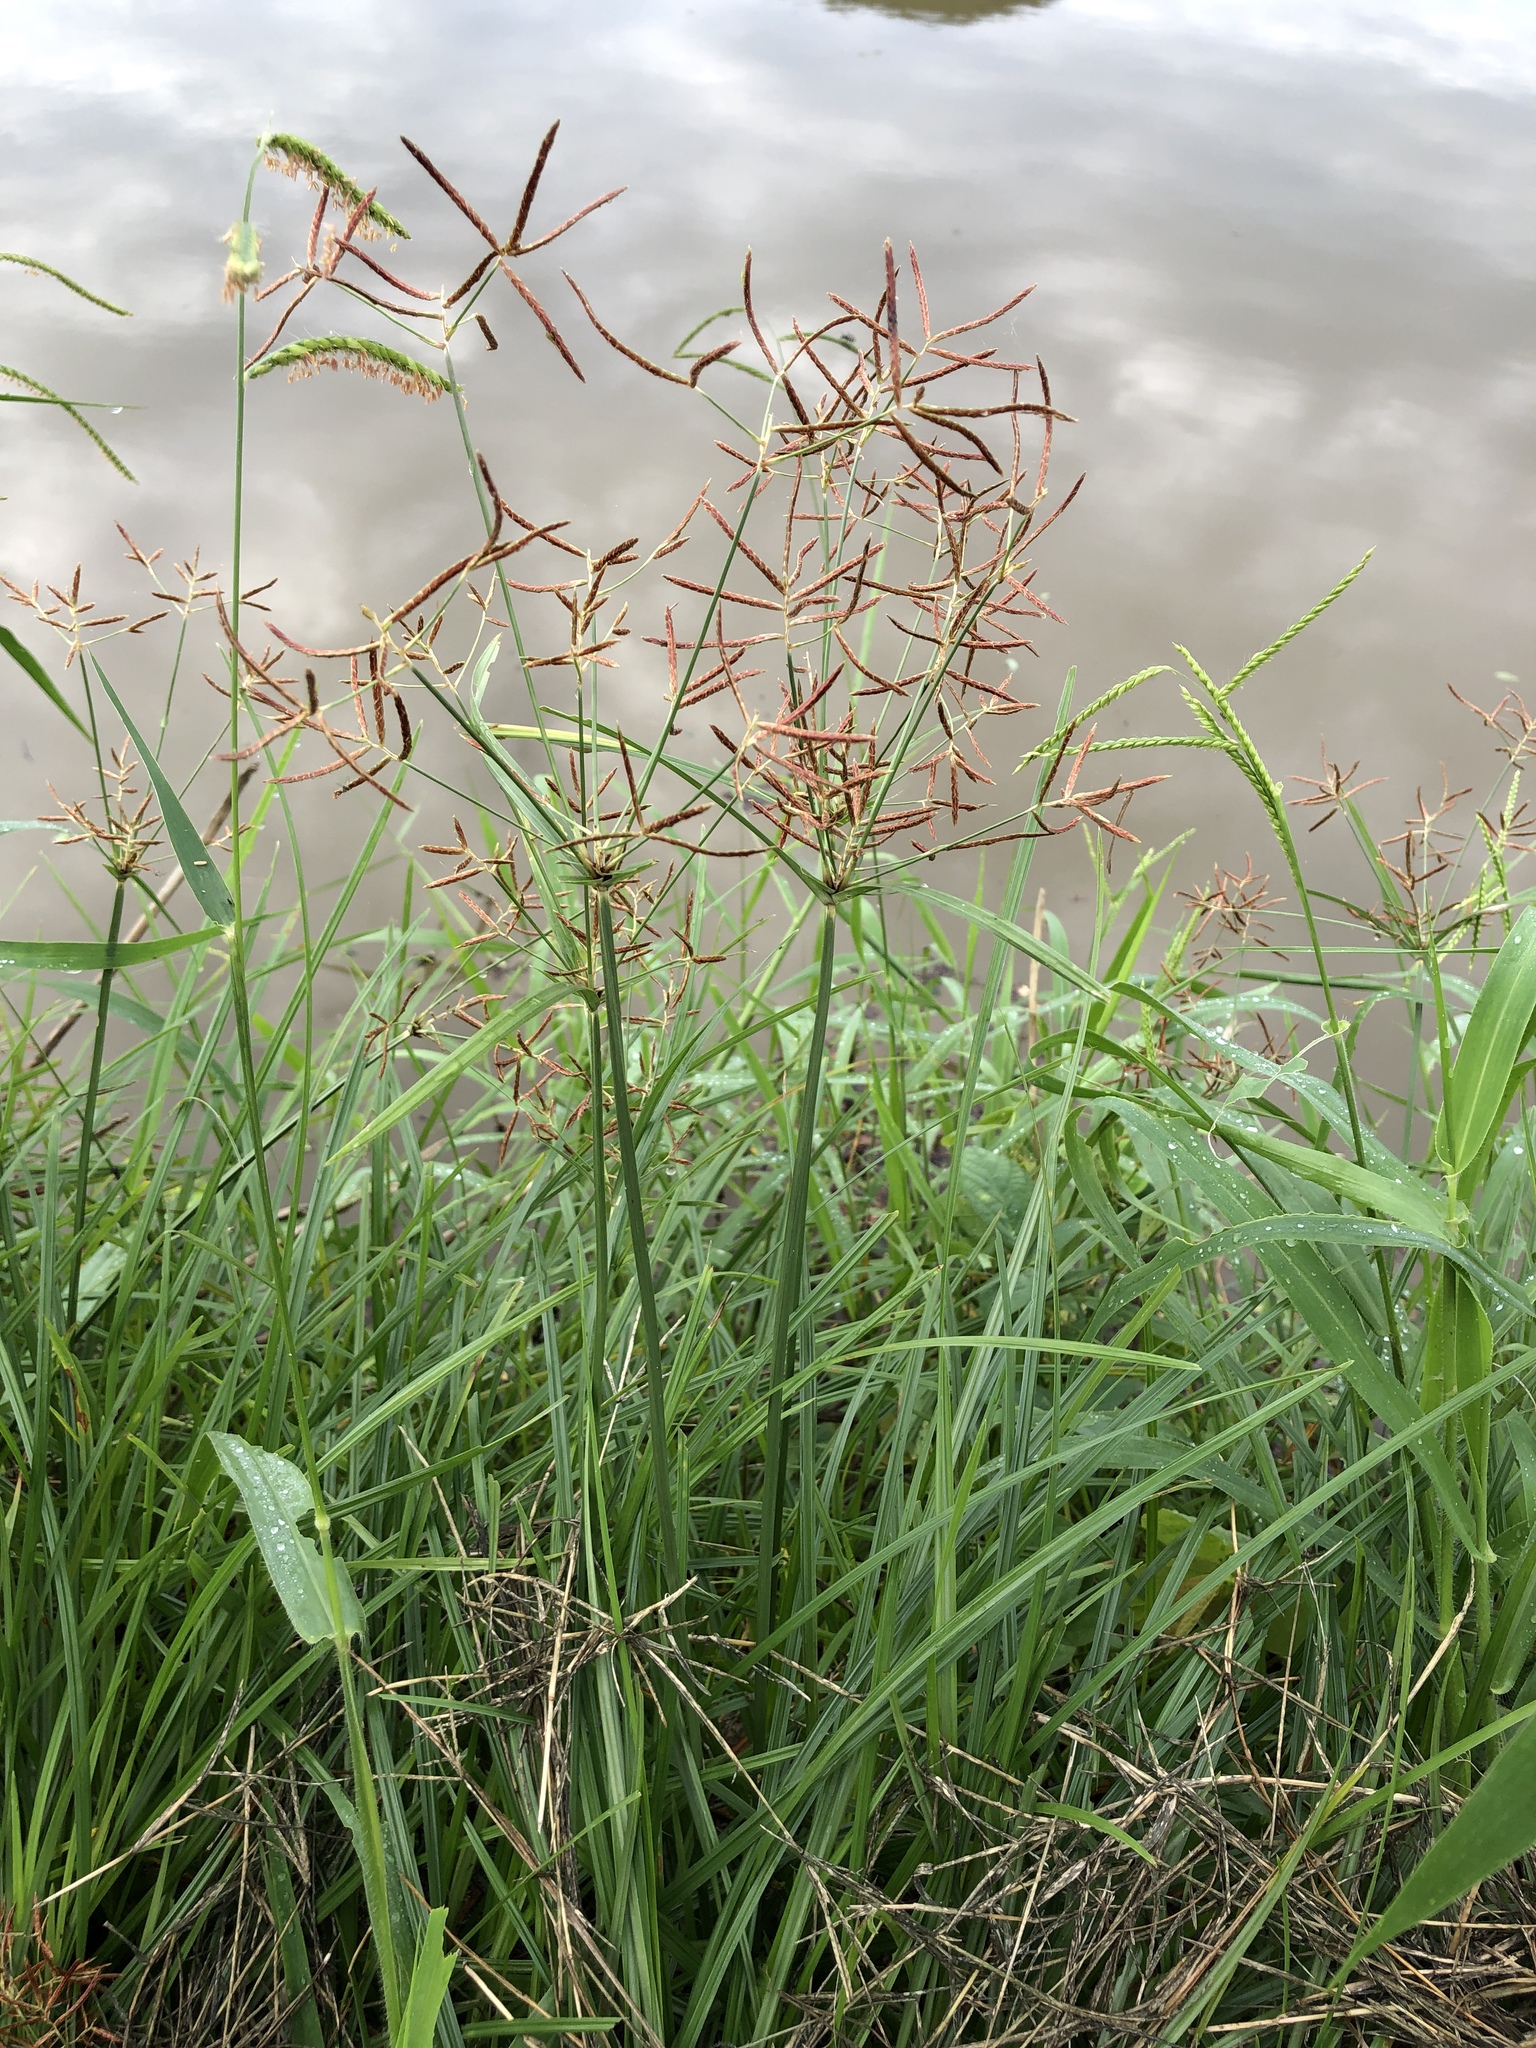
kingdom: Plantae
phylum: Tracheophyta
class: Liliopsida
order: Poales
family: Cyperaceae
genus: Cyperus
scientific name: Cyperus rotundus
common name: Nutgrass
